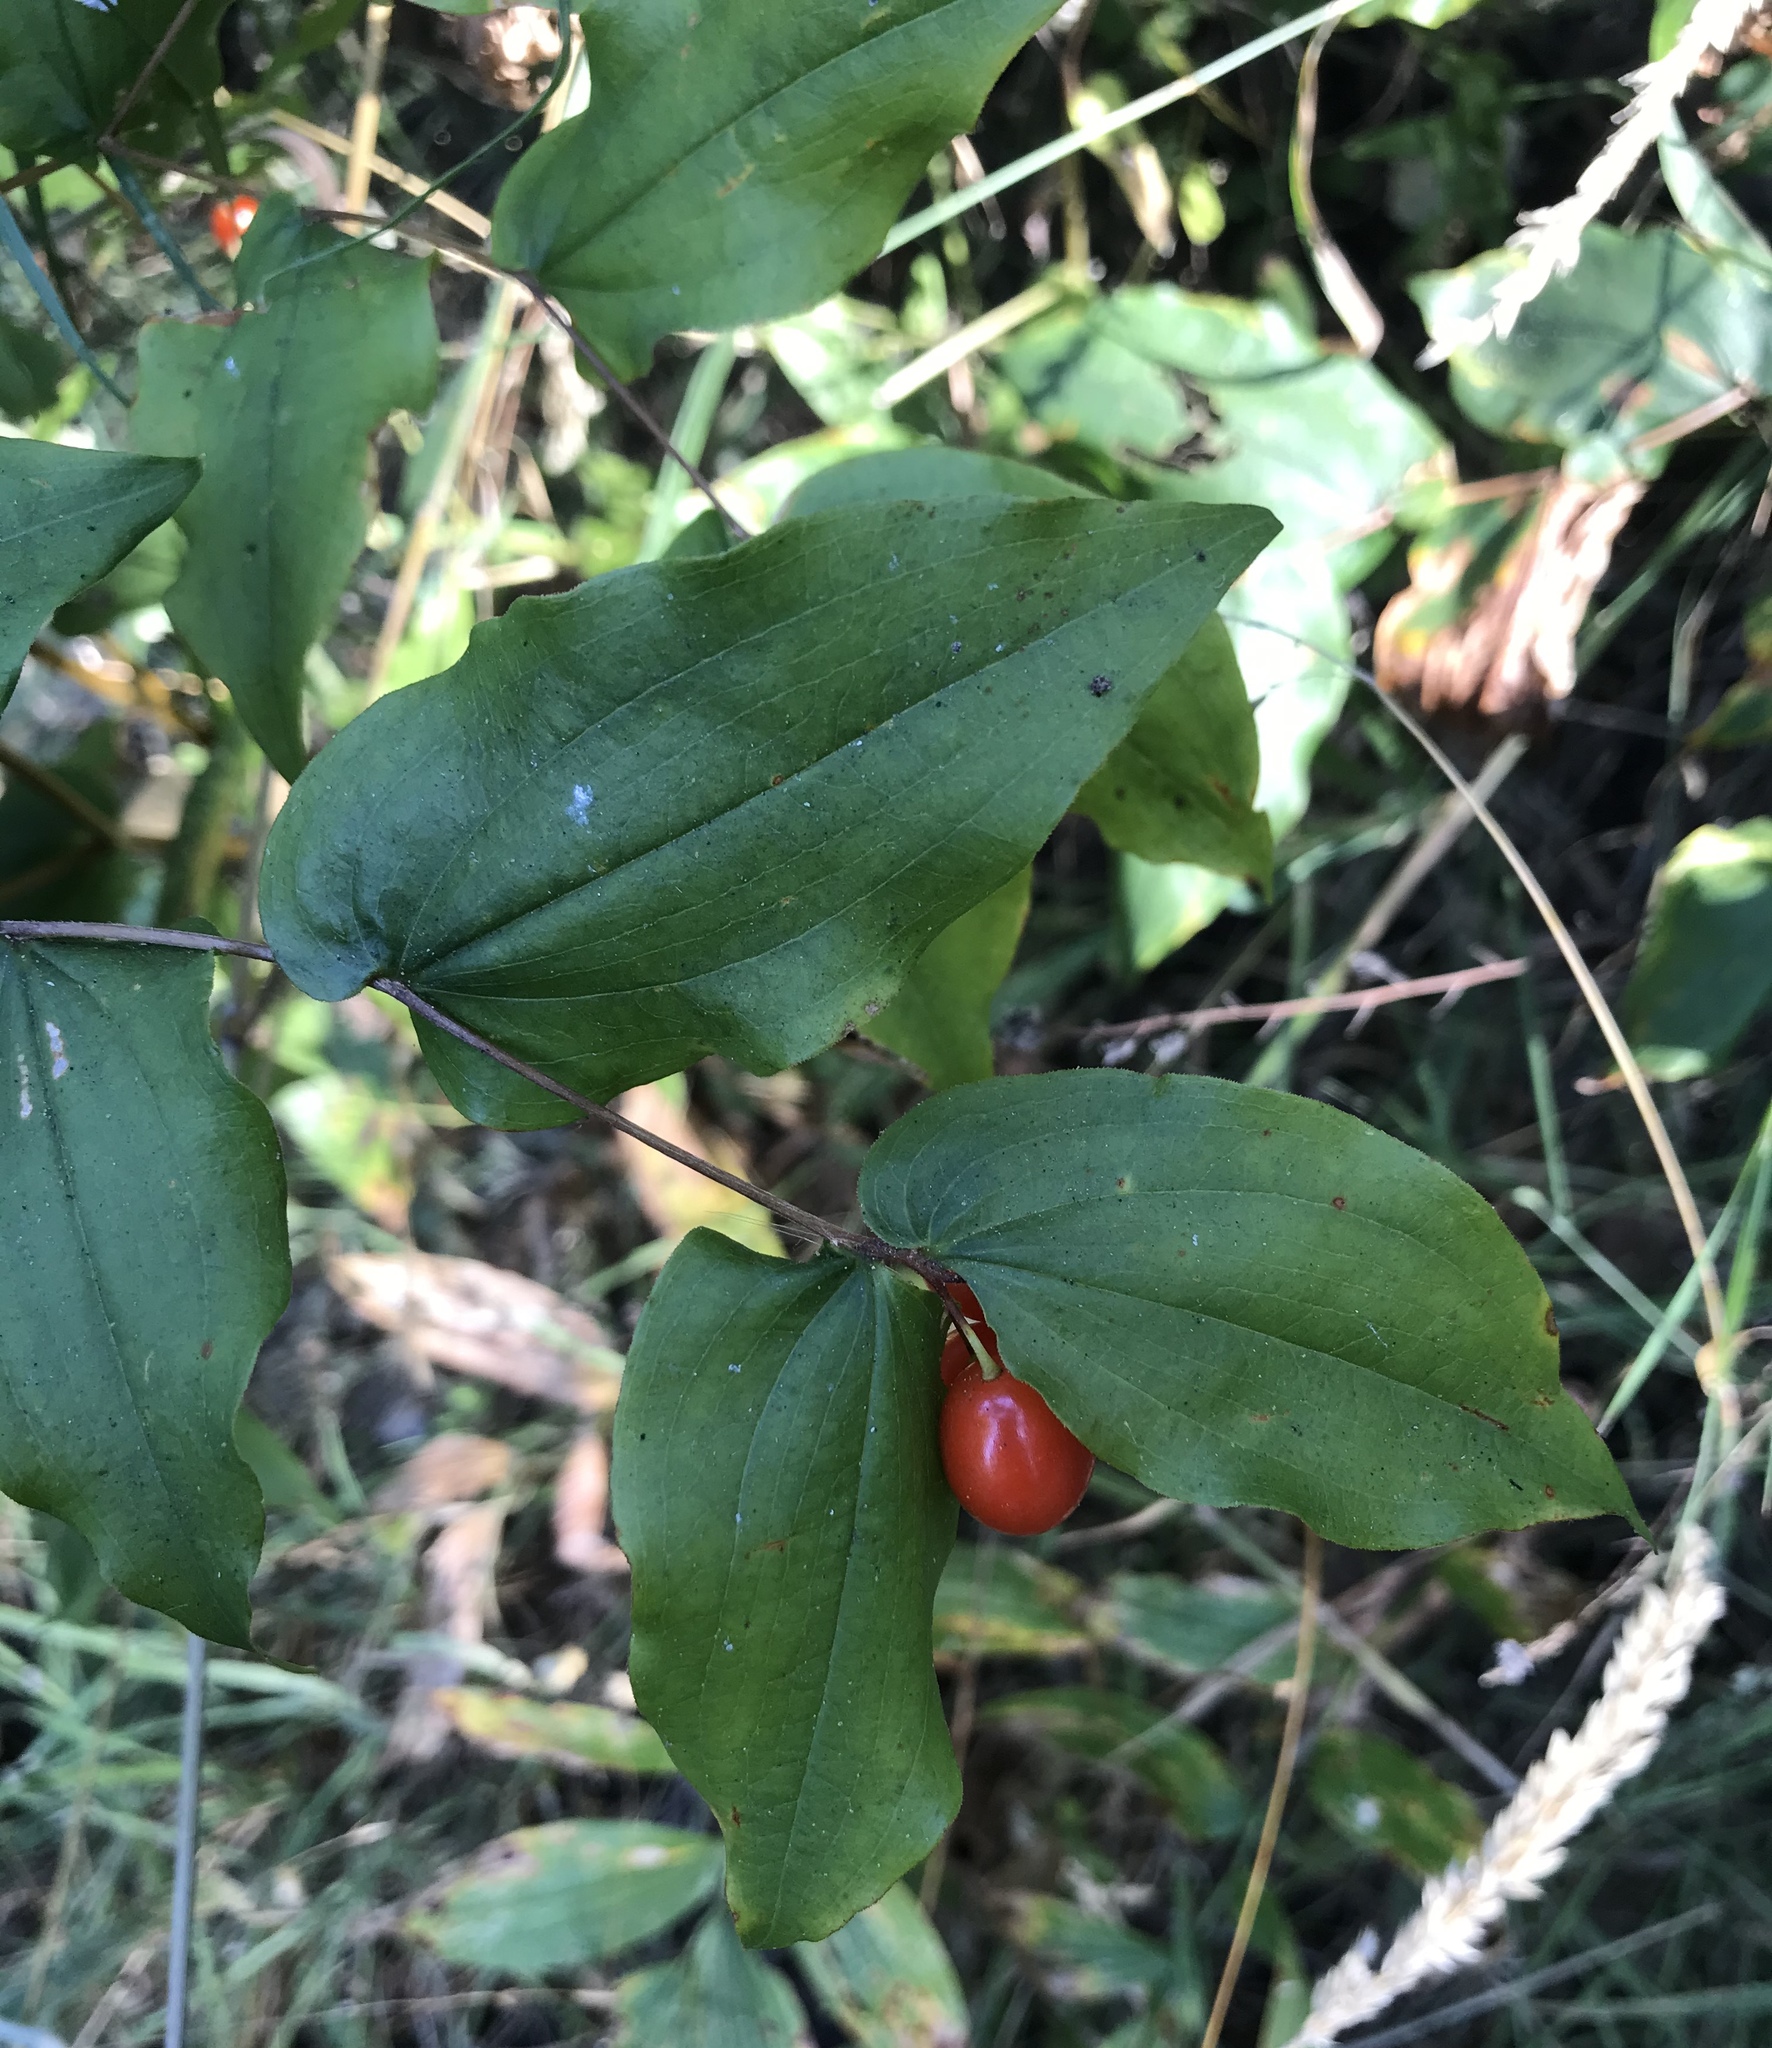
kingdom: Plantae
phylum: Tracheophyta
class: Liliopsida
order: Liliales
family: Liliaceae
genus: Prosartes
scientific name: Prosartes hookeri
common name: Fairy-bells
